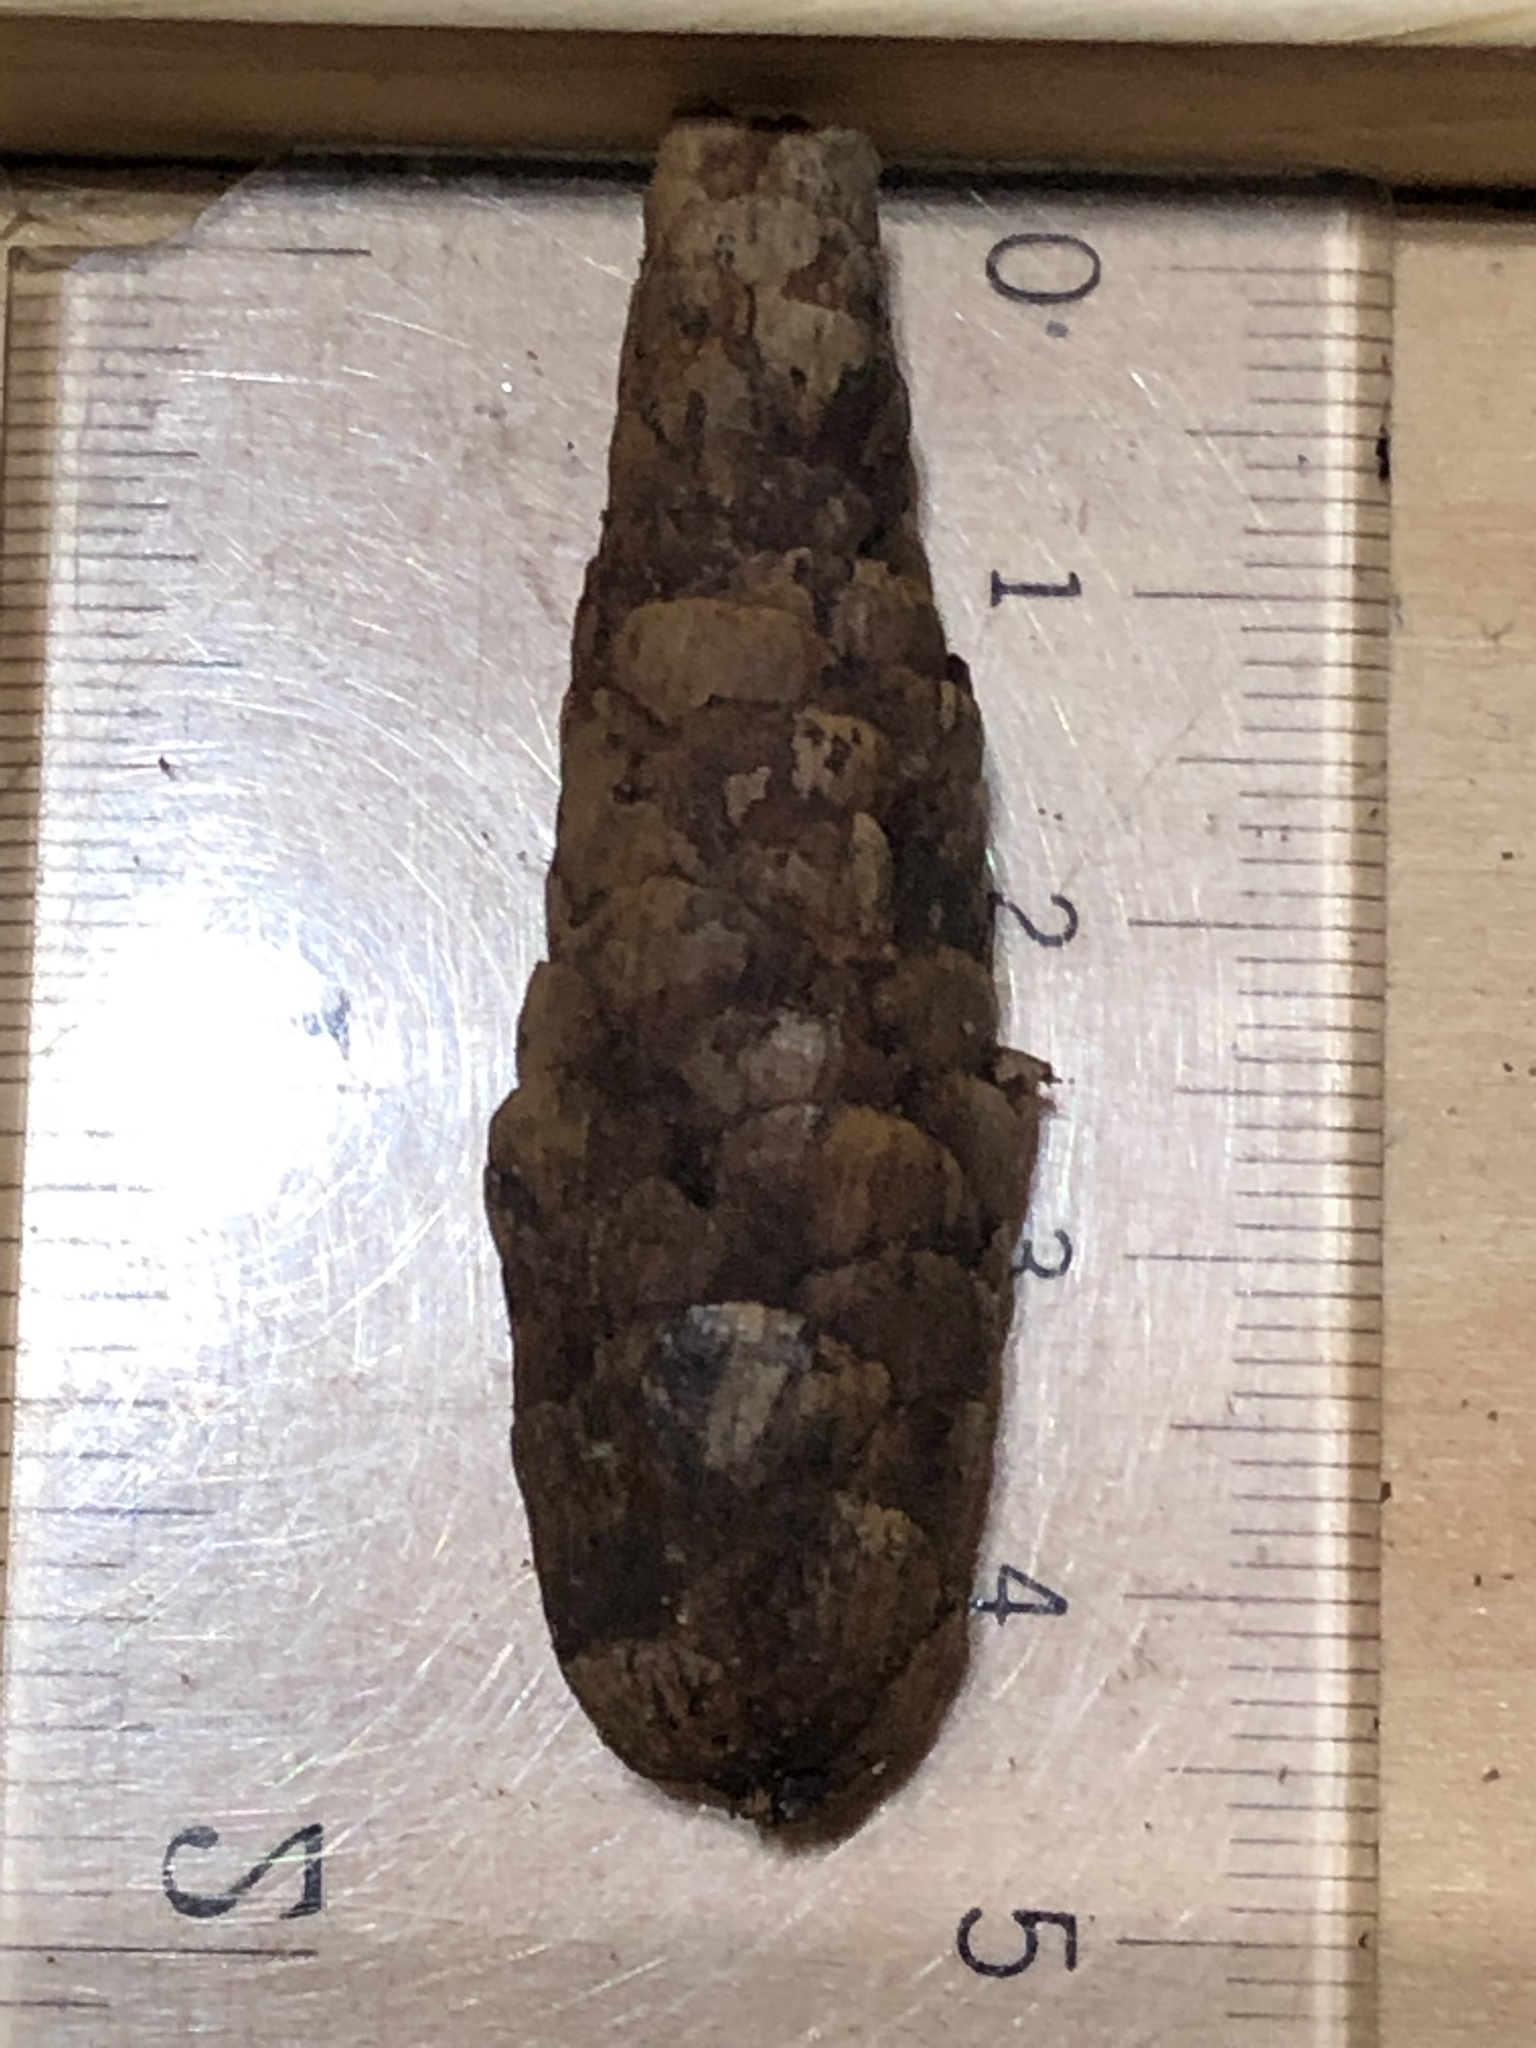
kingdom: Plantae
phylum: Tracheophyta
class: Pinopsida
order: Pinales
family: Pinaceae
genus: Picea
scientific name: Picea glauca
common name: White spruce
